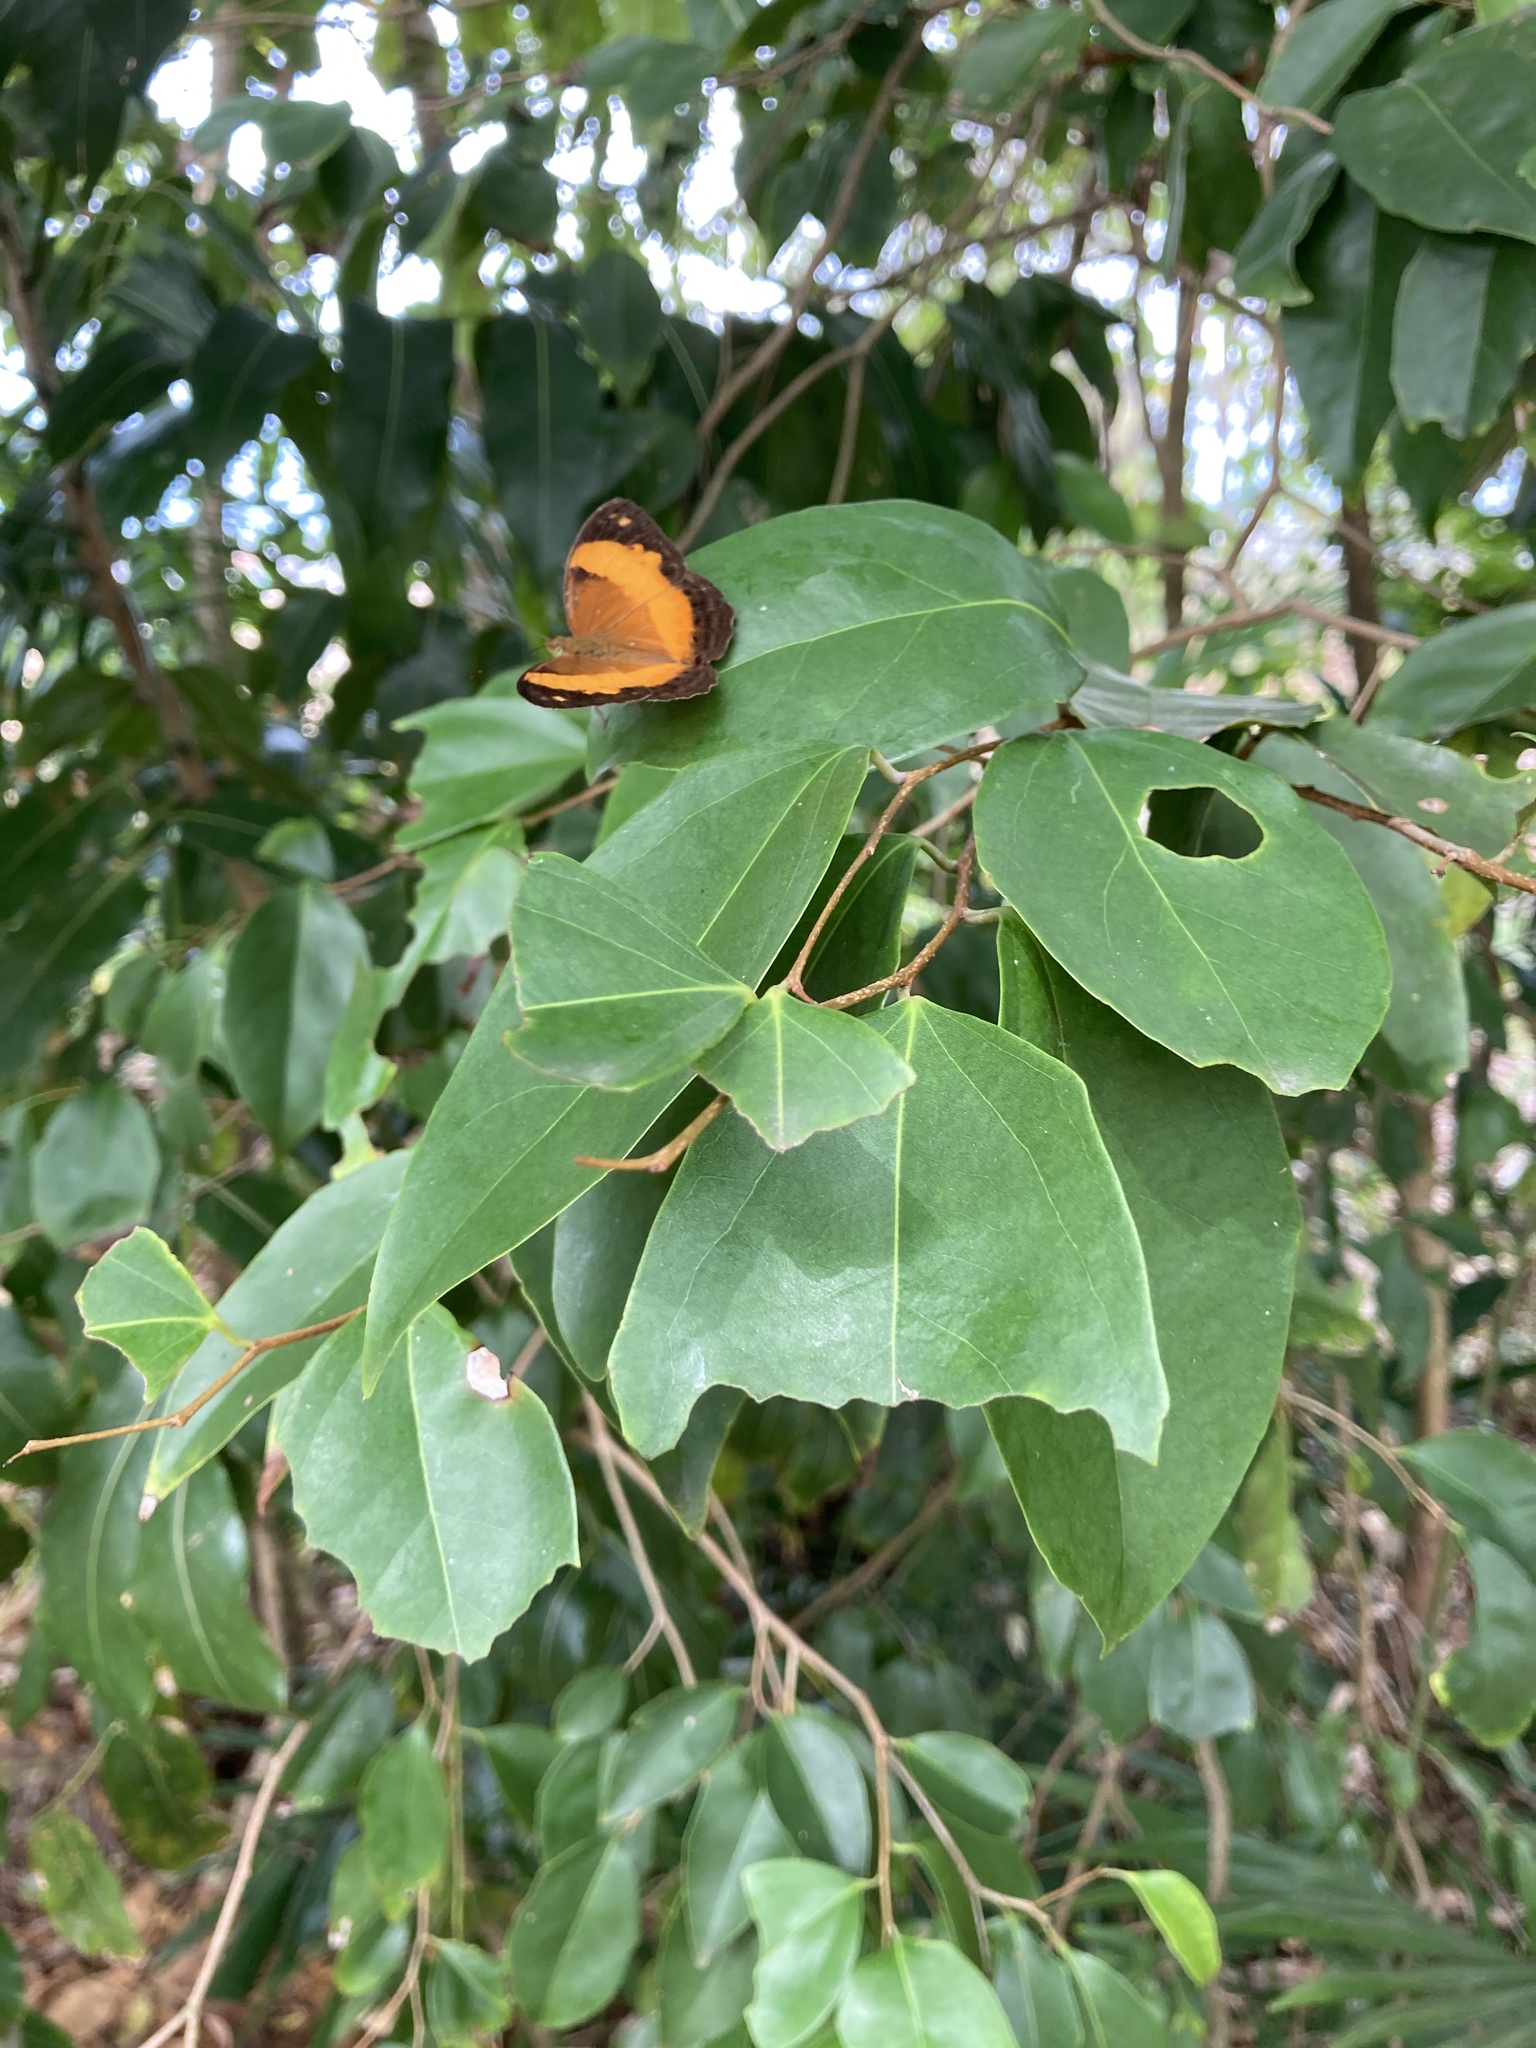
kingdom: Animalia
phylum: Arthropoda
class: Insecta
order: Lepidoptera
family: Nymphalidae
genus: Cupha
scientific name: Cupha prosope
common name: Bordered rustic
